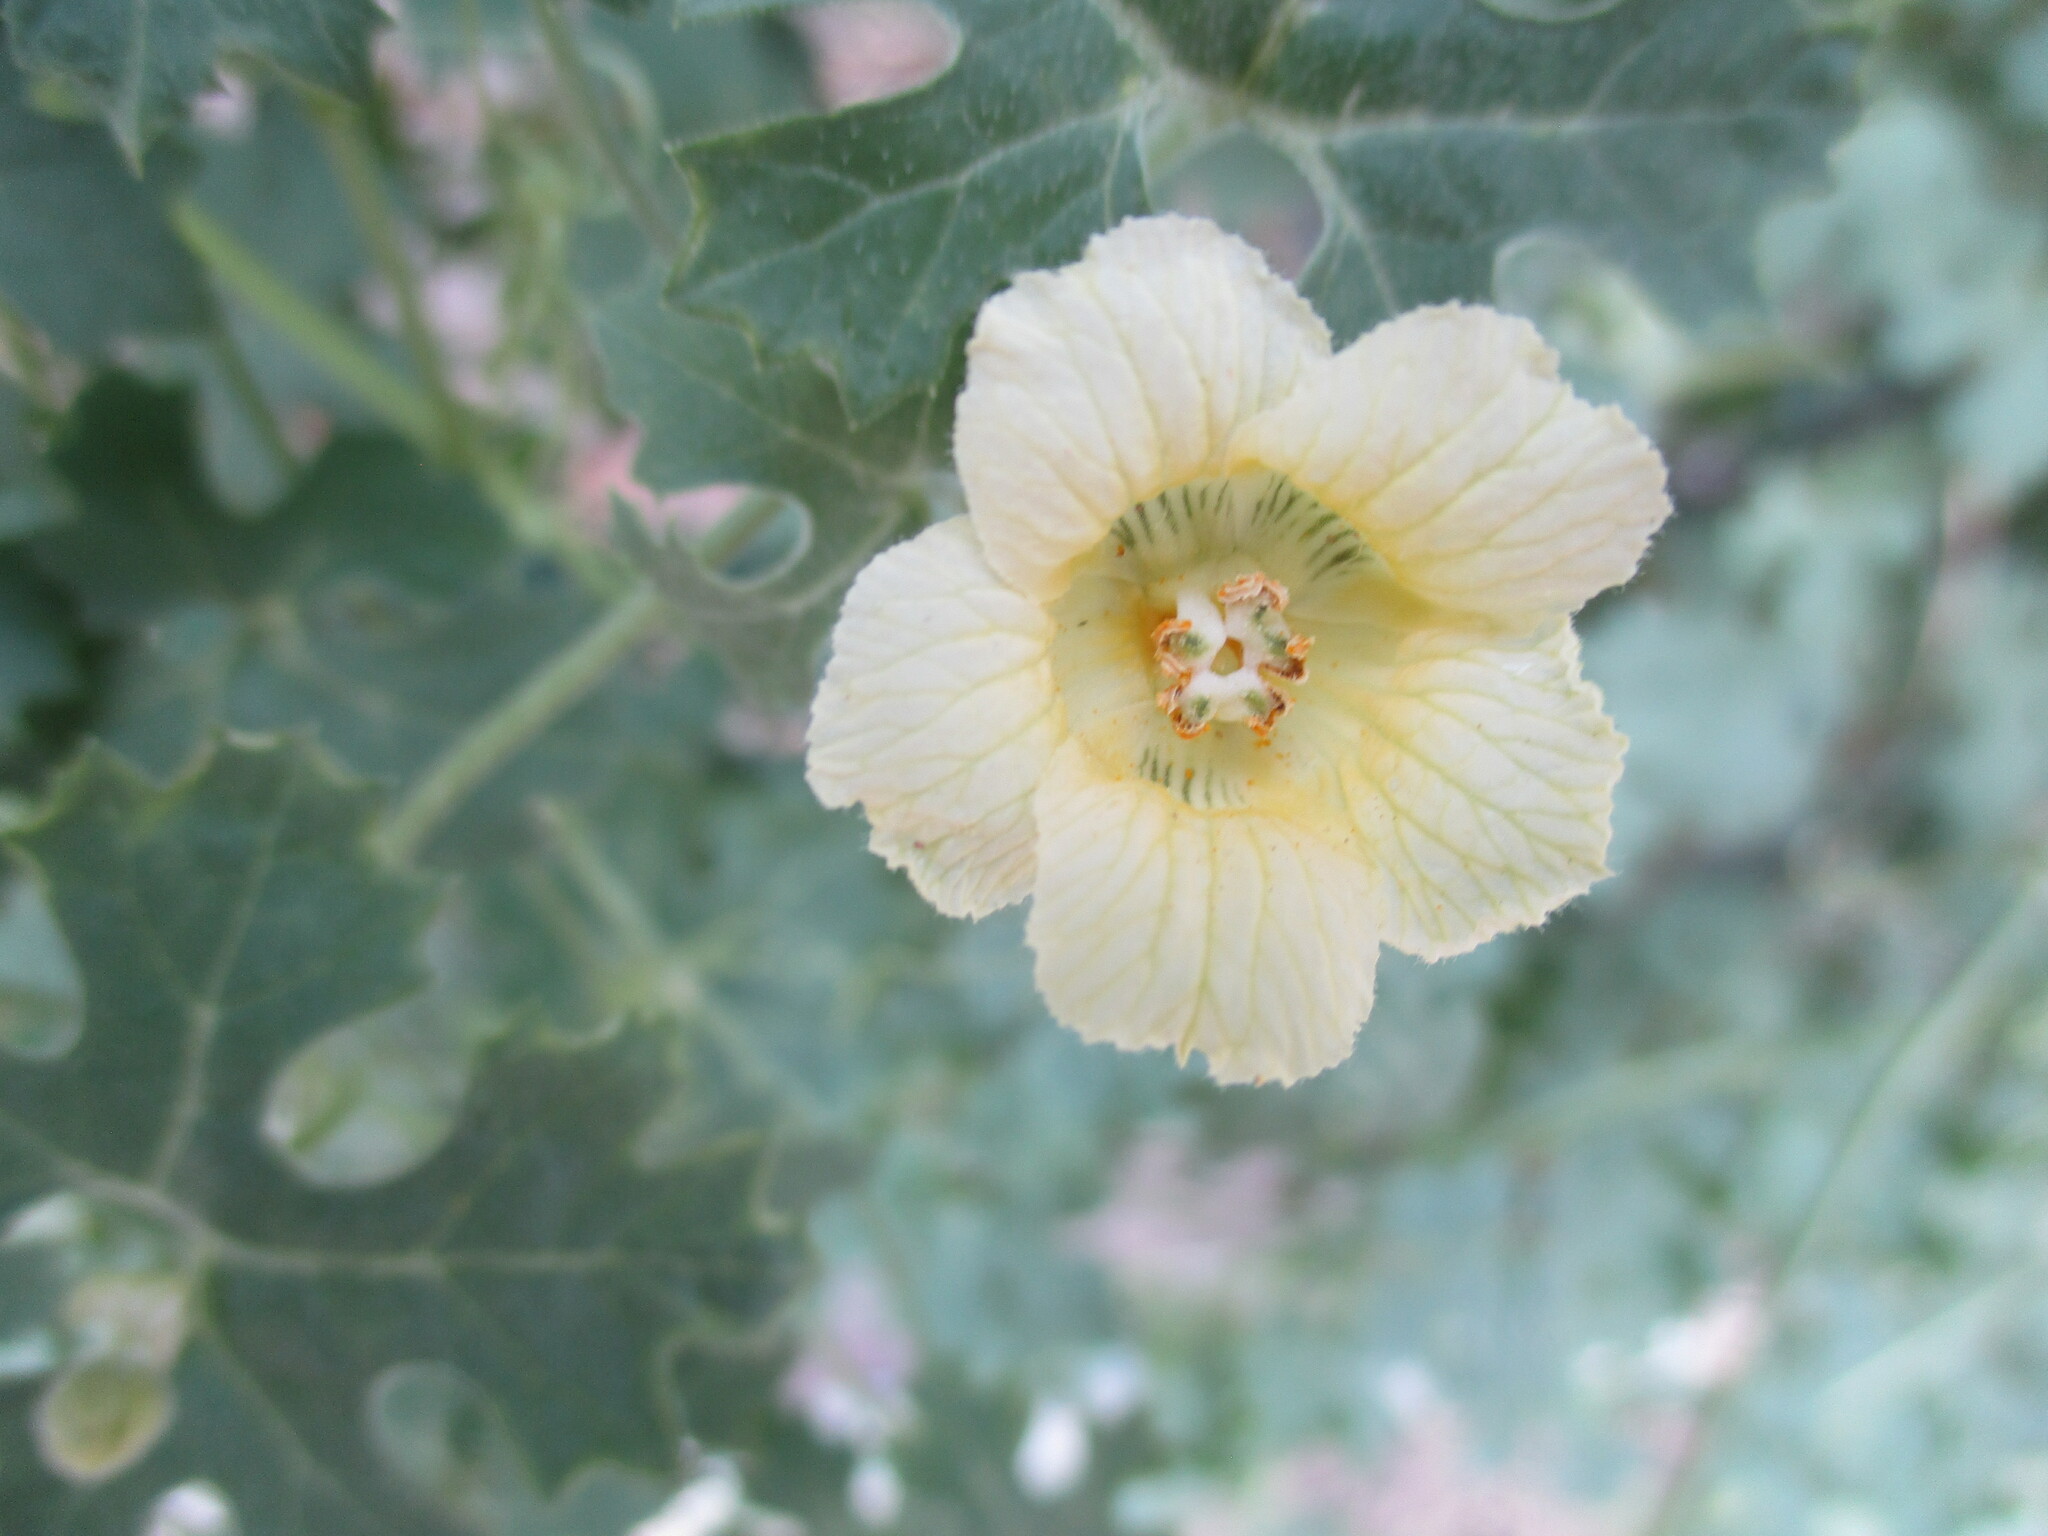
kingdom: Plantae
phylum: Tracheophyta
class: Magnoliopsida
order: Cucurbitales
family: Cucurbitaceae
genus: Momordica
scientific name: Momordica balsamina
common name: Southern balsampear
